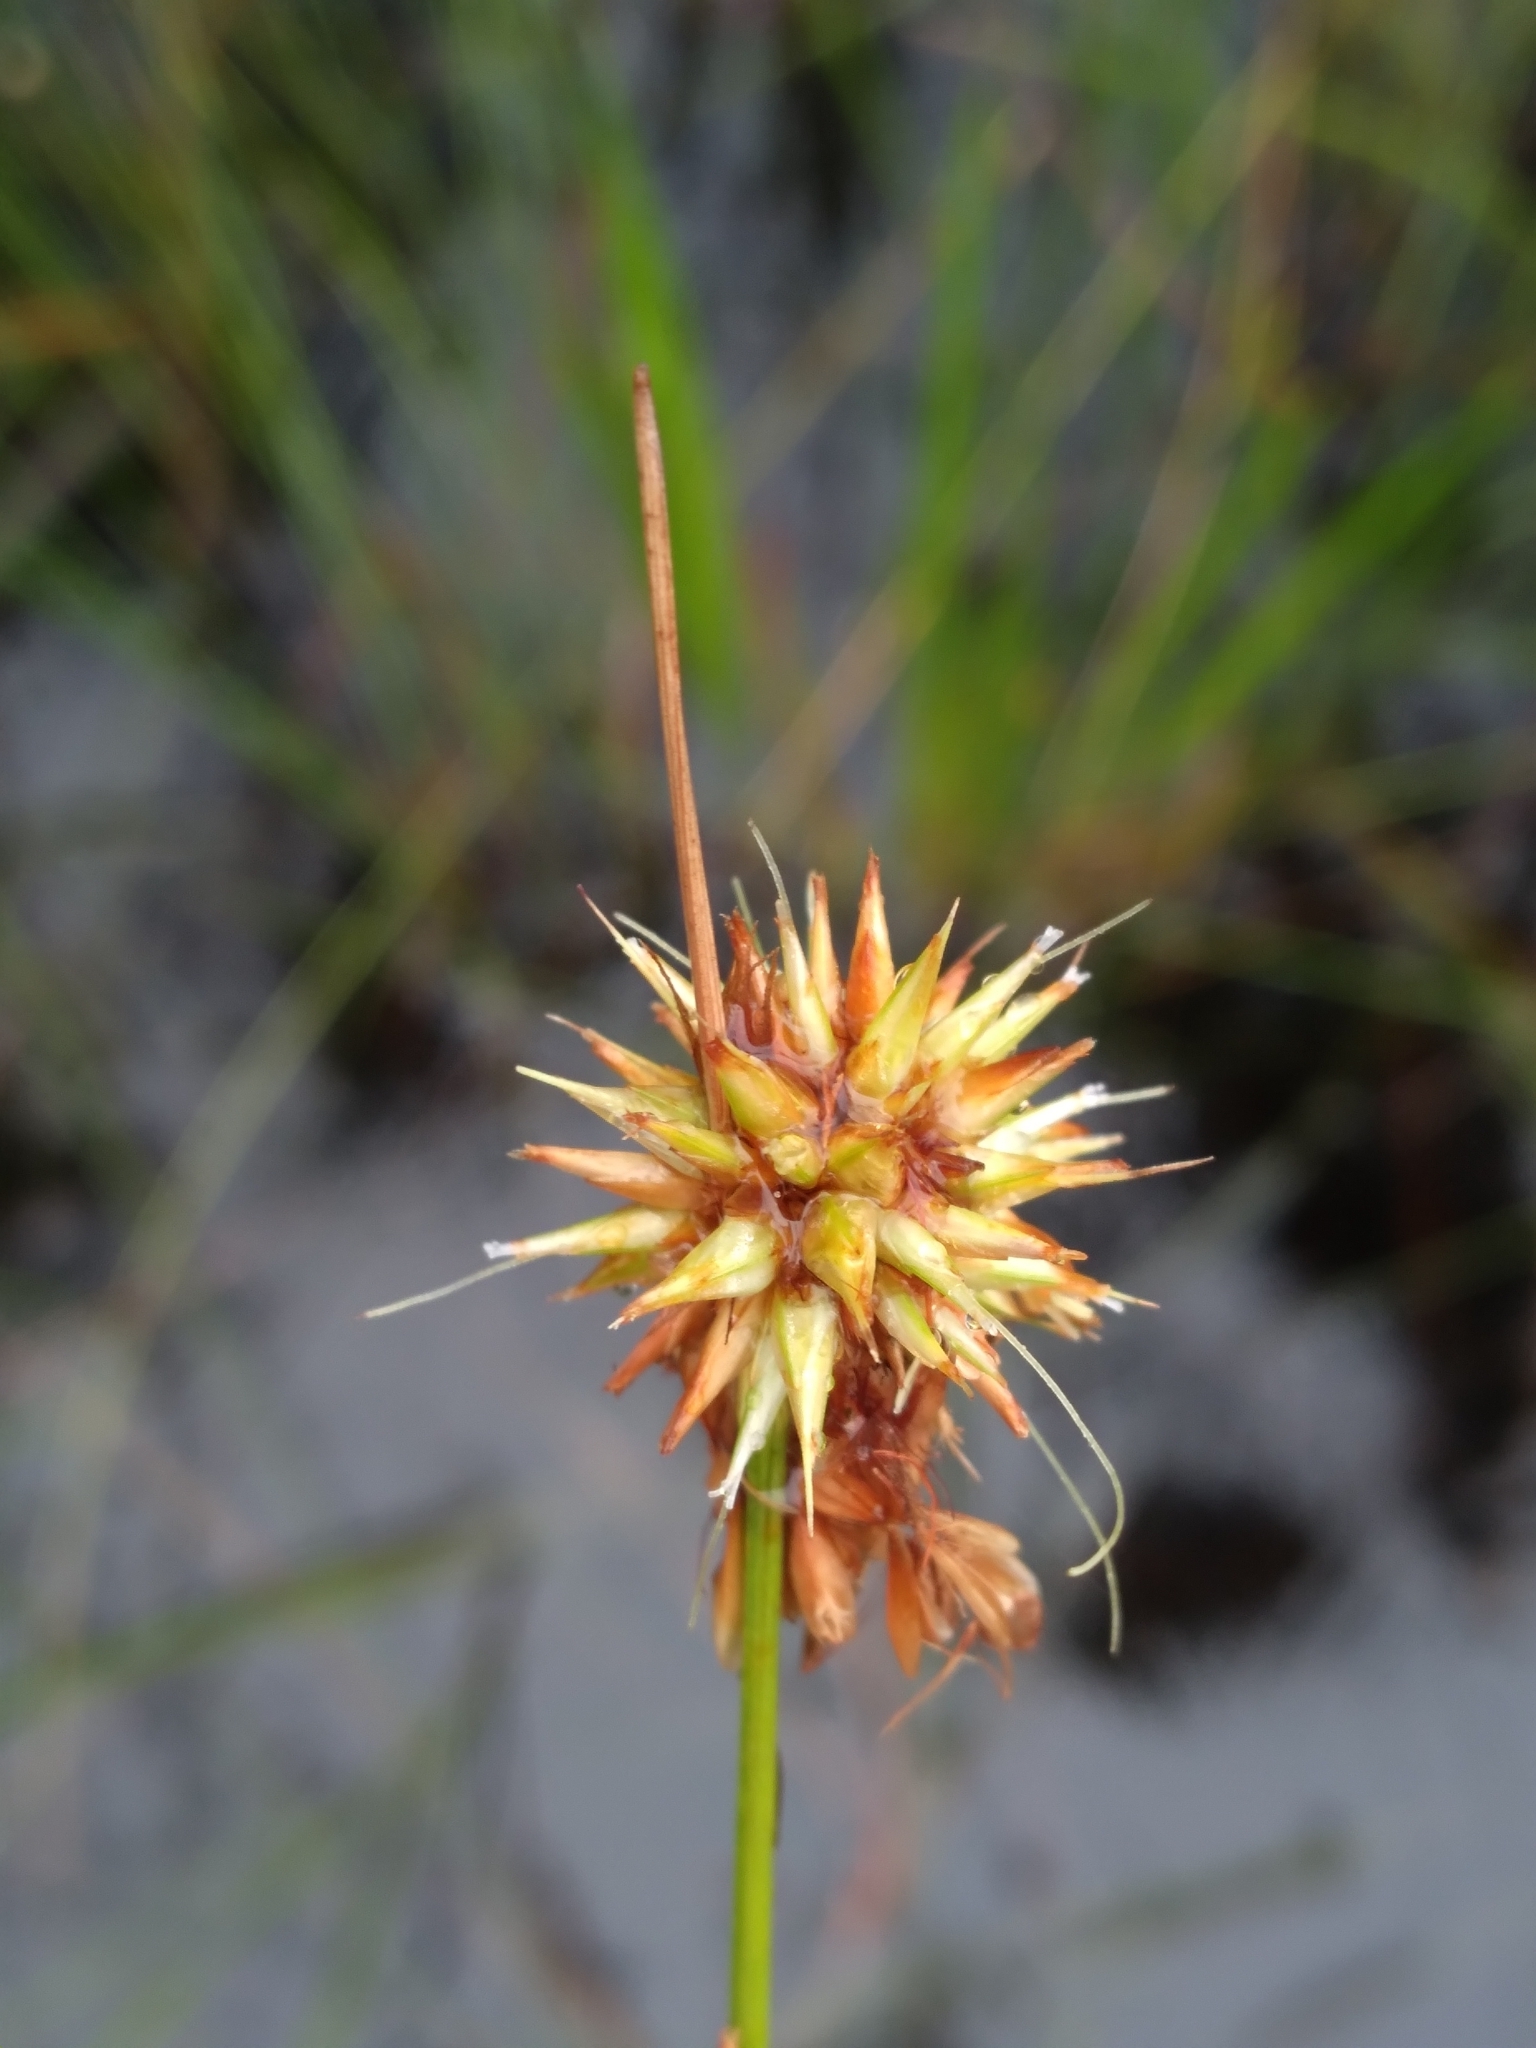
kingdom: Plantae
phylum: Tracheophyta
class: Liliopsida
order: Poales
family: Cyperaceae
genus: Rhynchospora
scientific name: Rhynchospora tracyi
